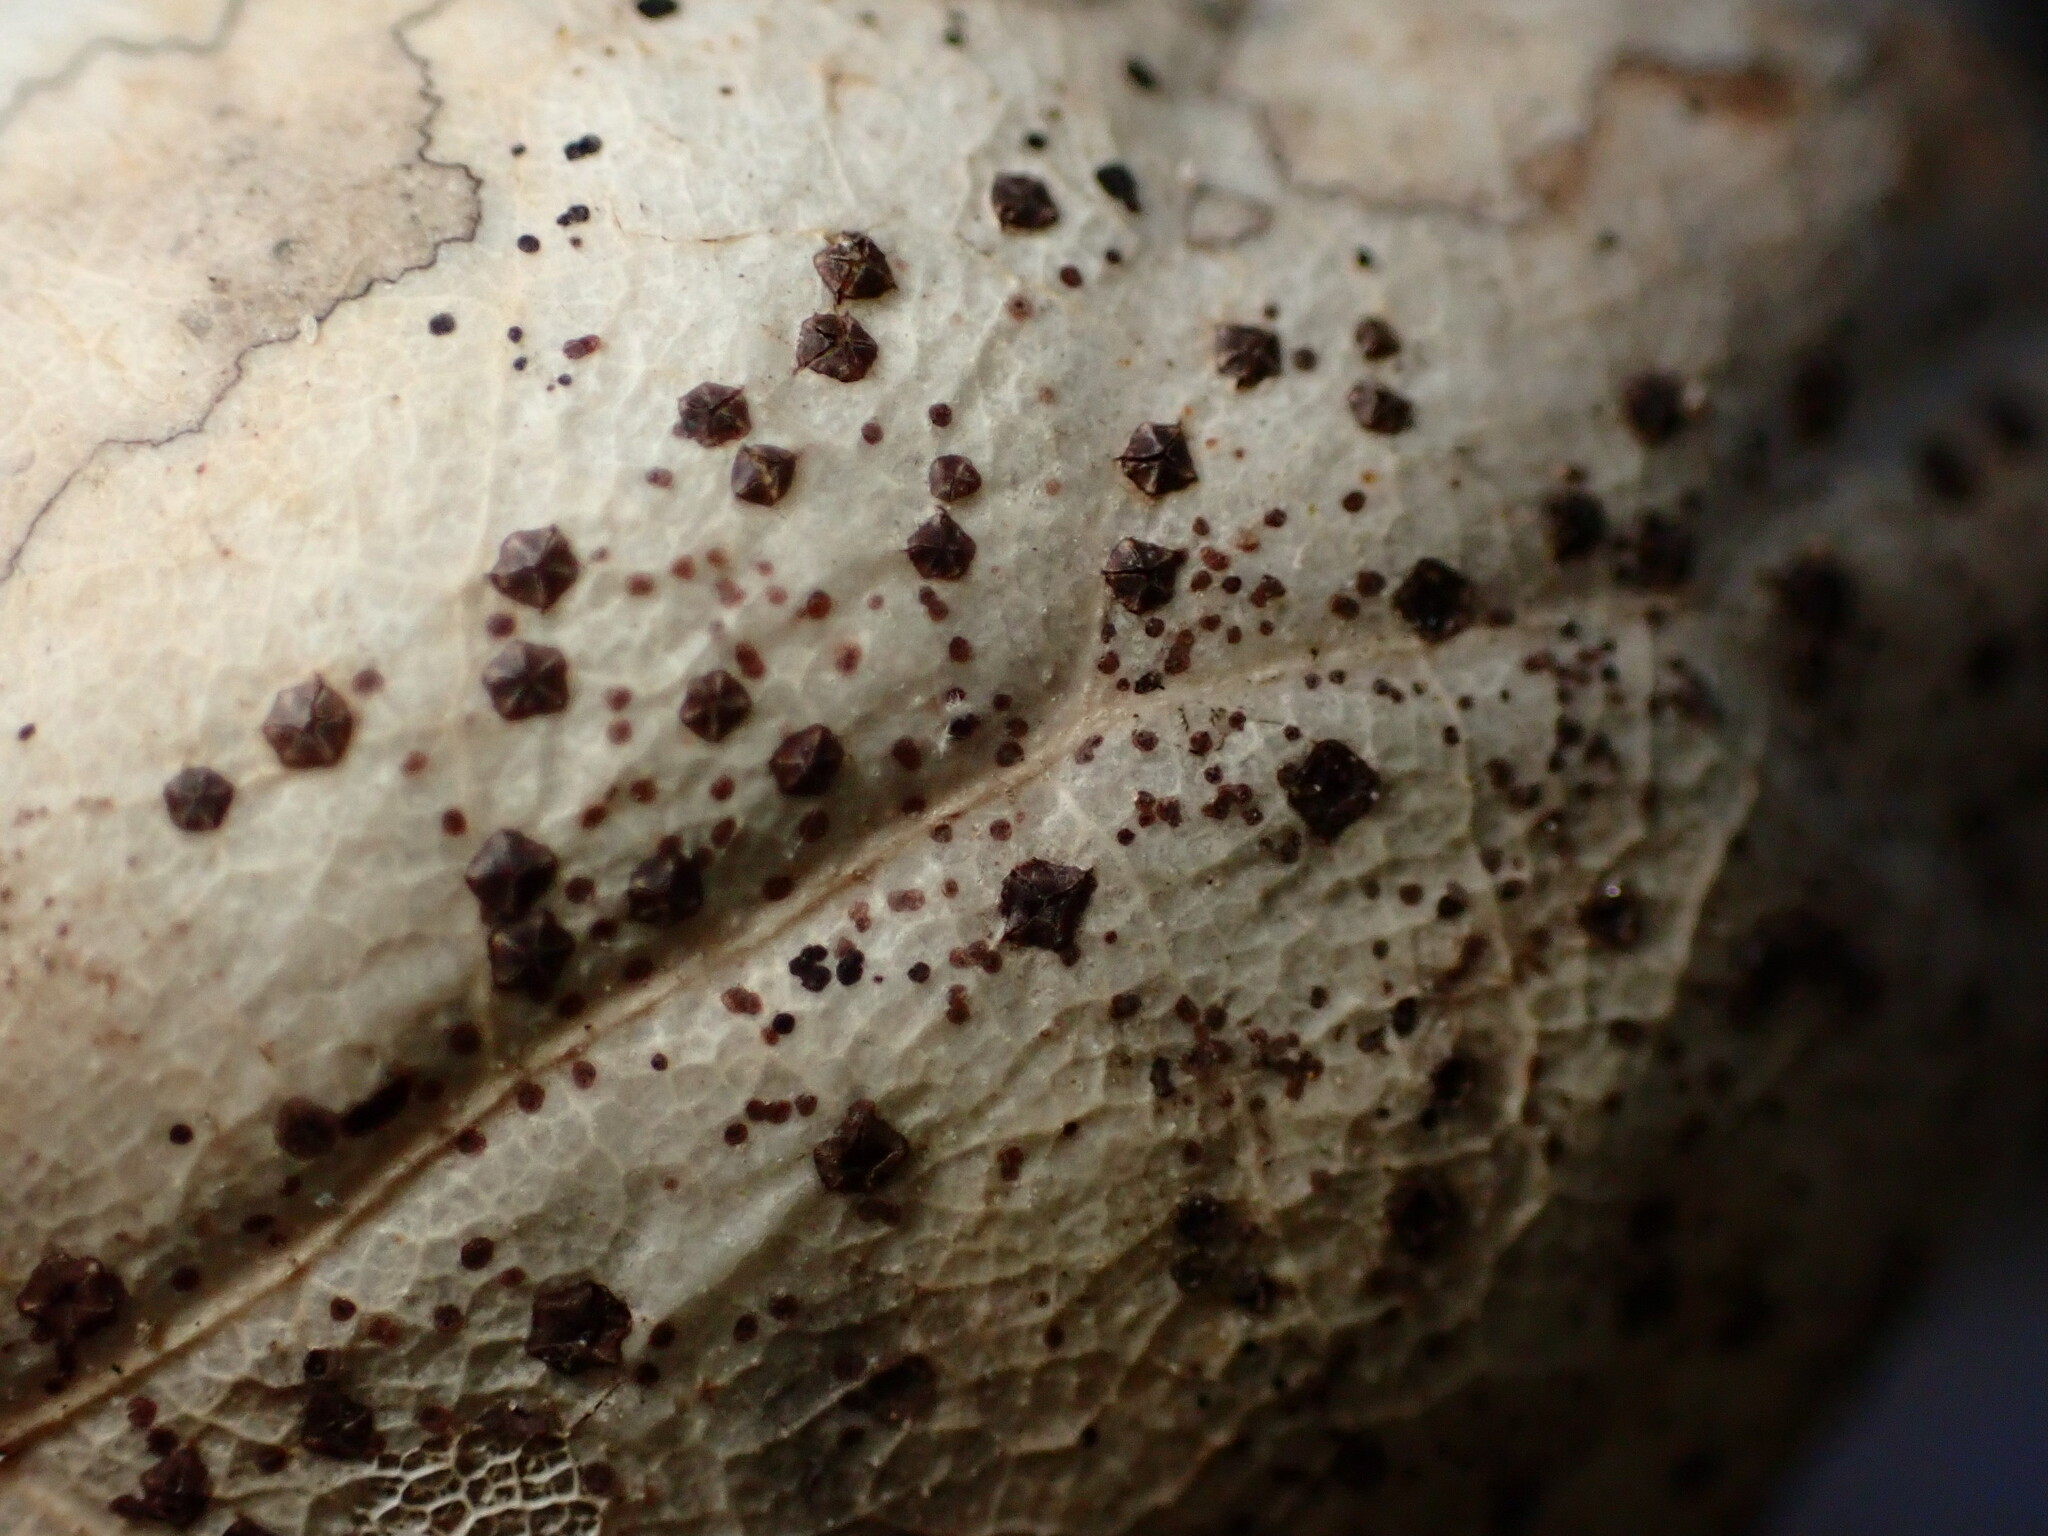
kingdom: Fungi
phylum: Ascomycota
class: Leotiomycetes
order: Rhytismatales
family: Rhytismataceae
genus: Coccomyces
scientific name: Coccomyces dentatus
